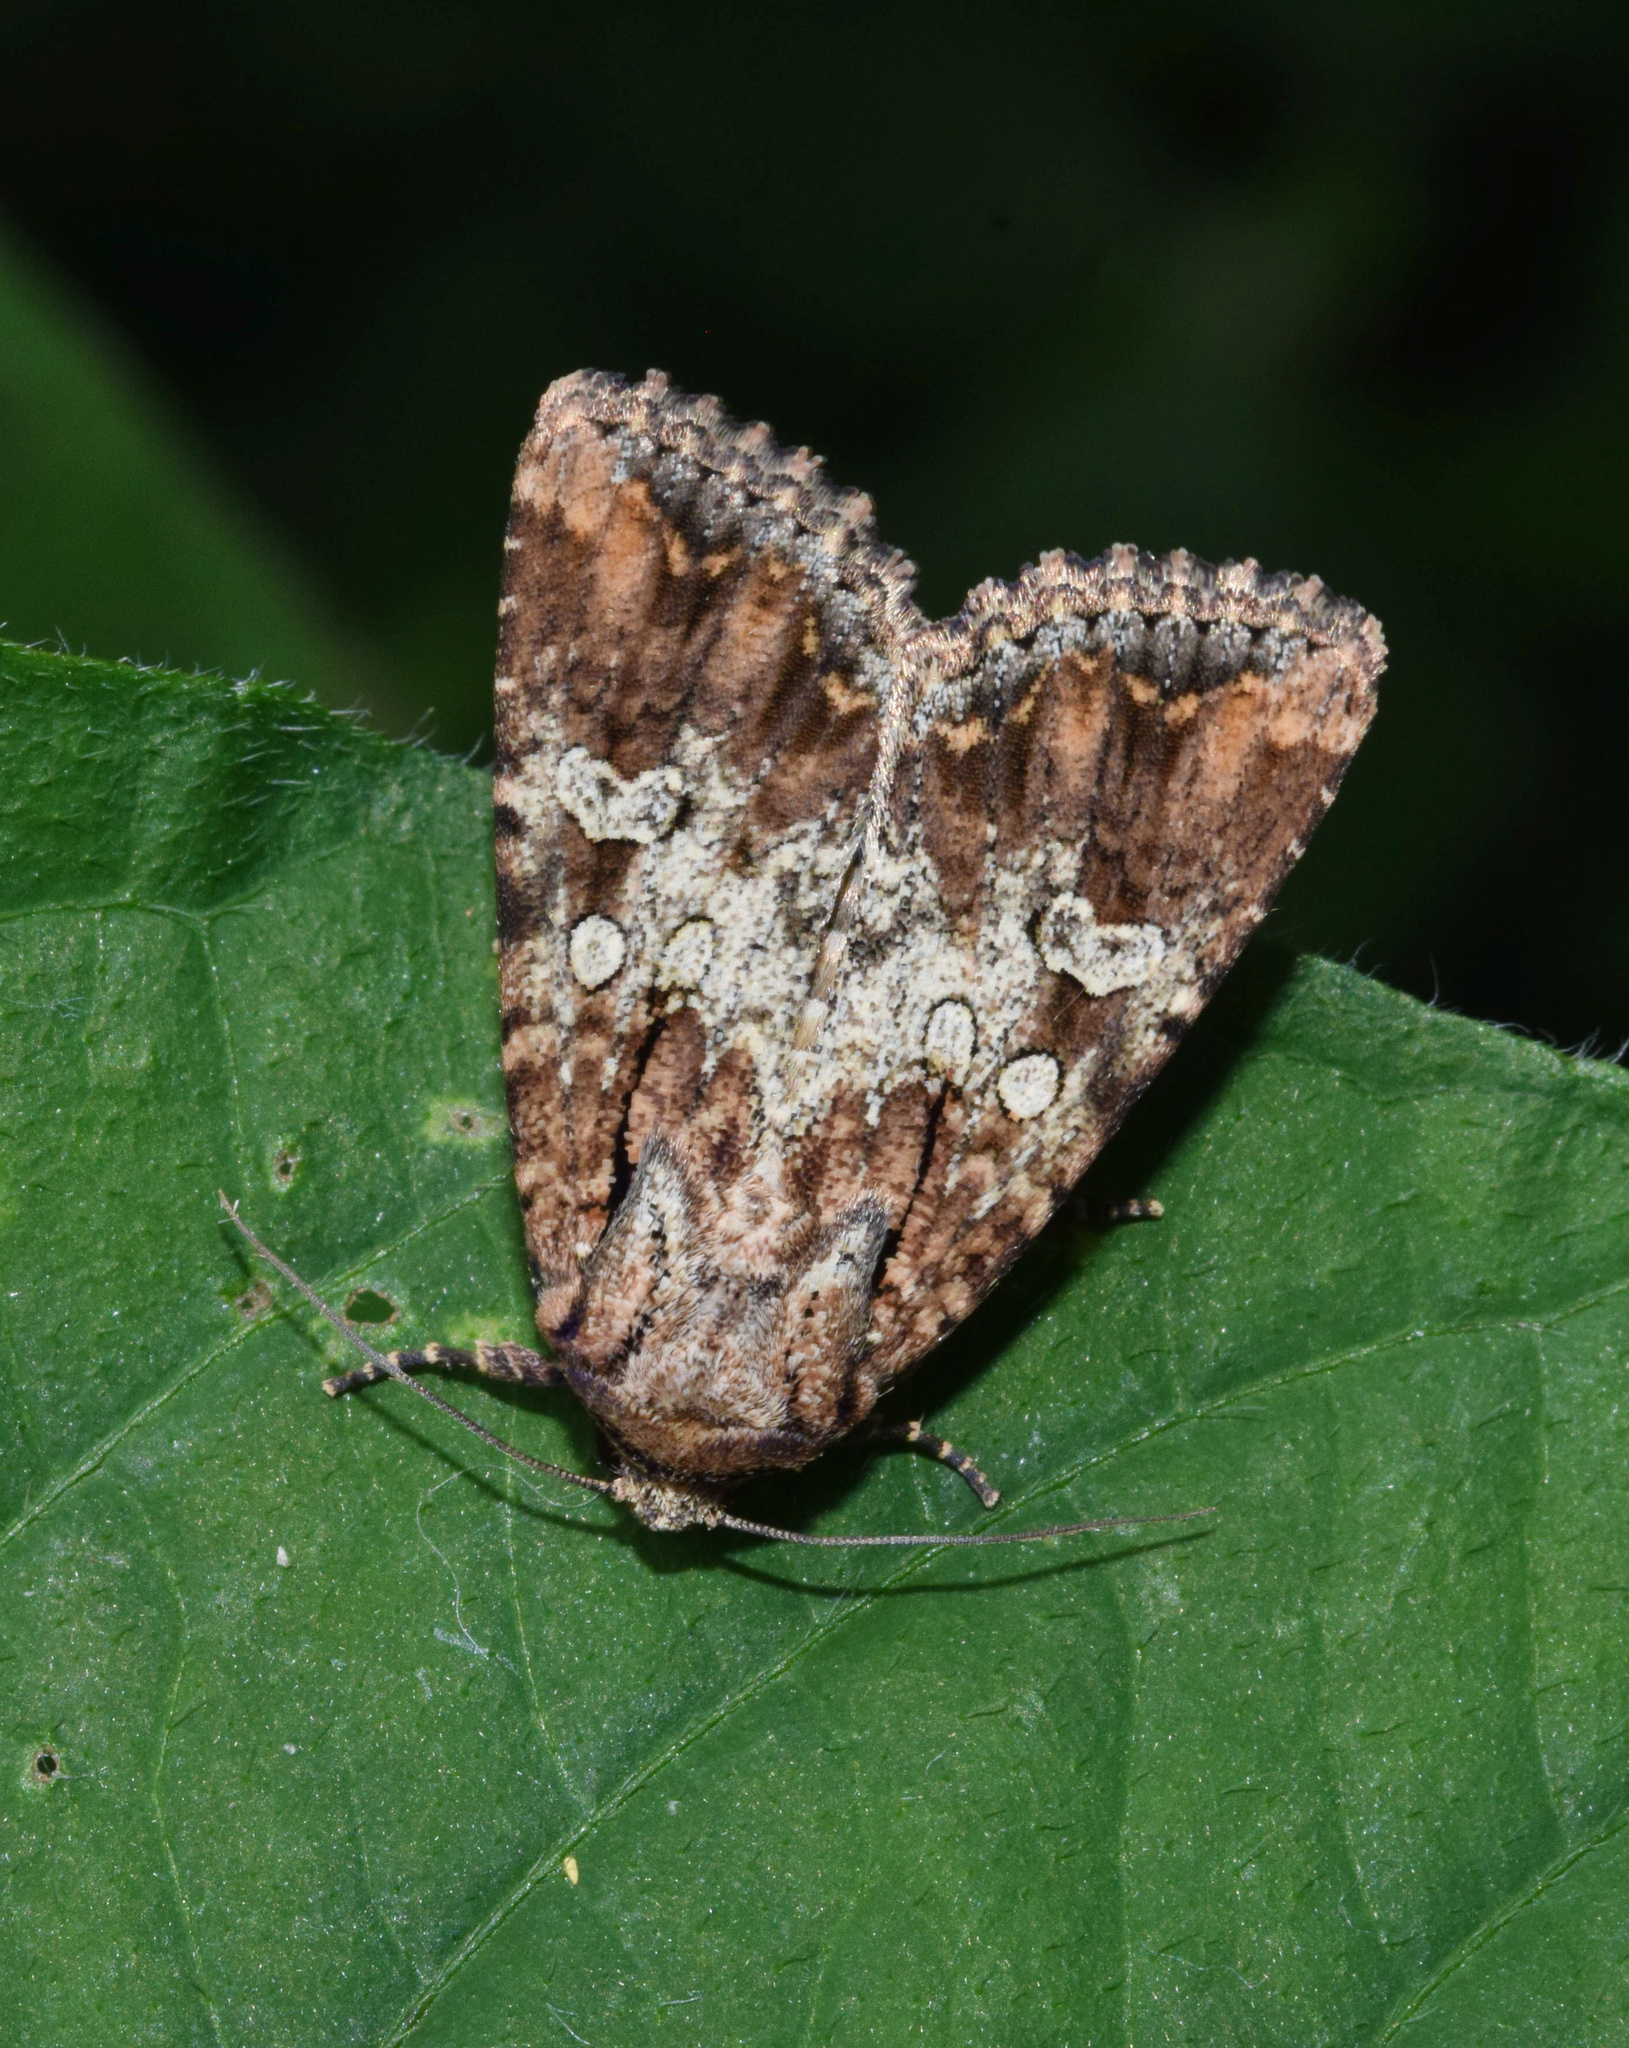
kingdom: Animalia
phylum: Arthropoda
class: Insecta
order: Lepidoptera
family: Noctuidae
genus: Omphalestra
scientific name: Omphalestra mesoglauca
